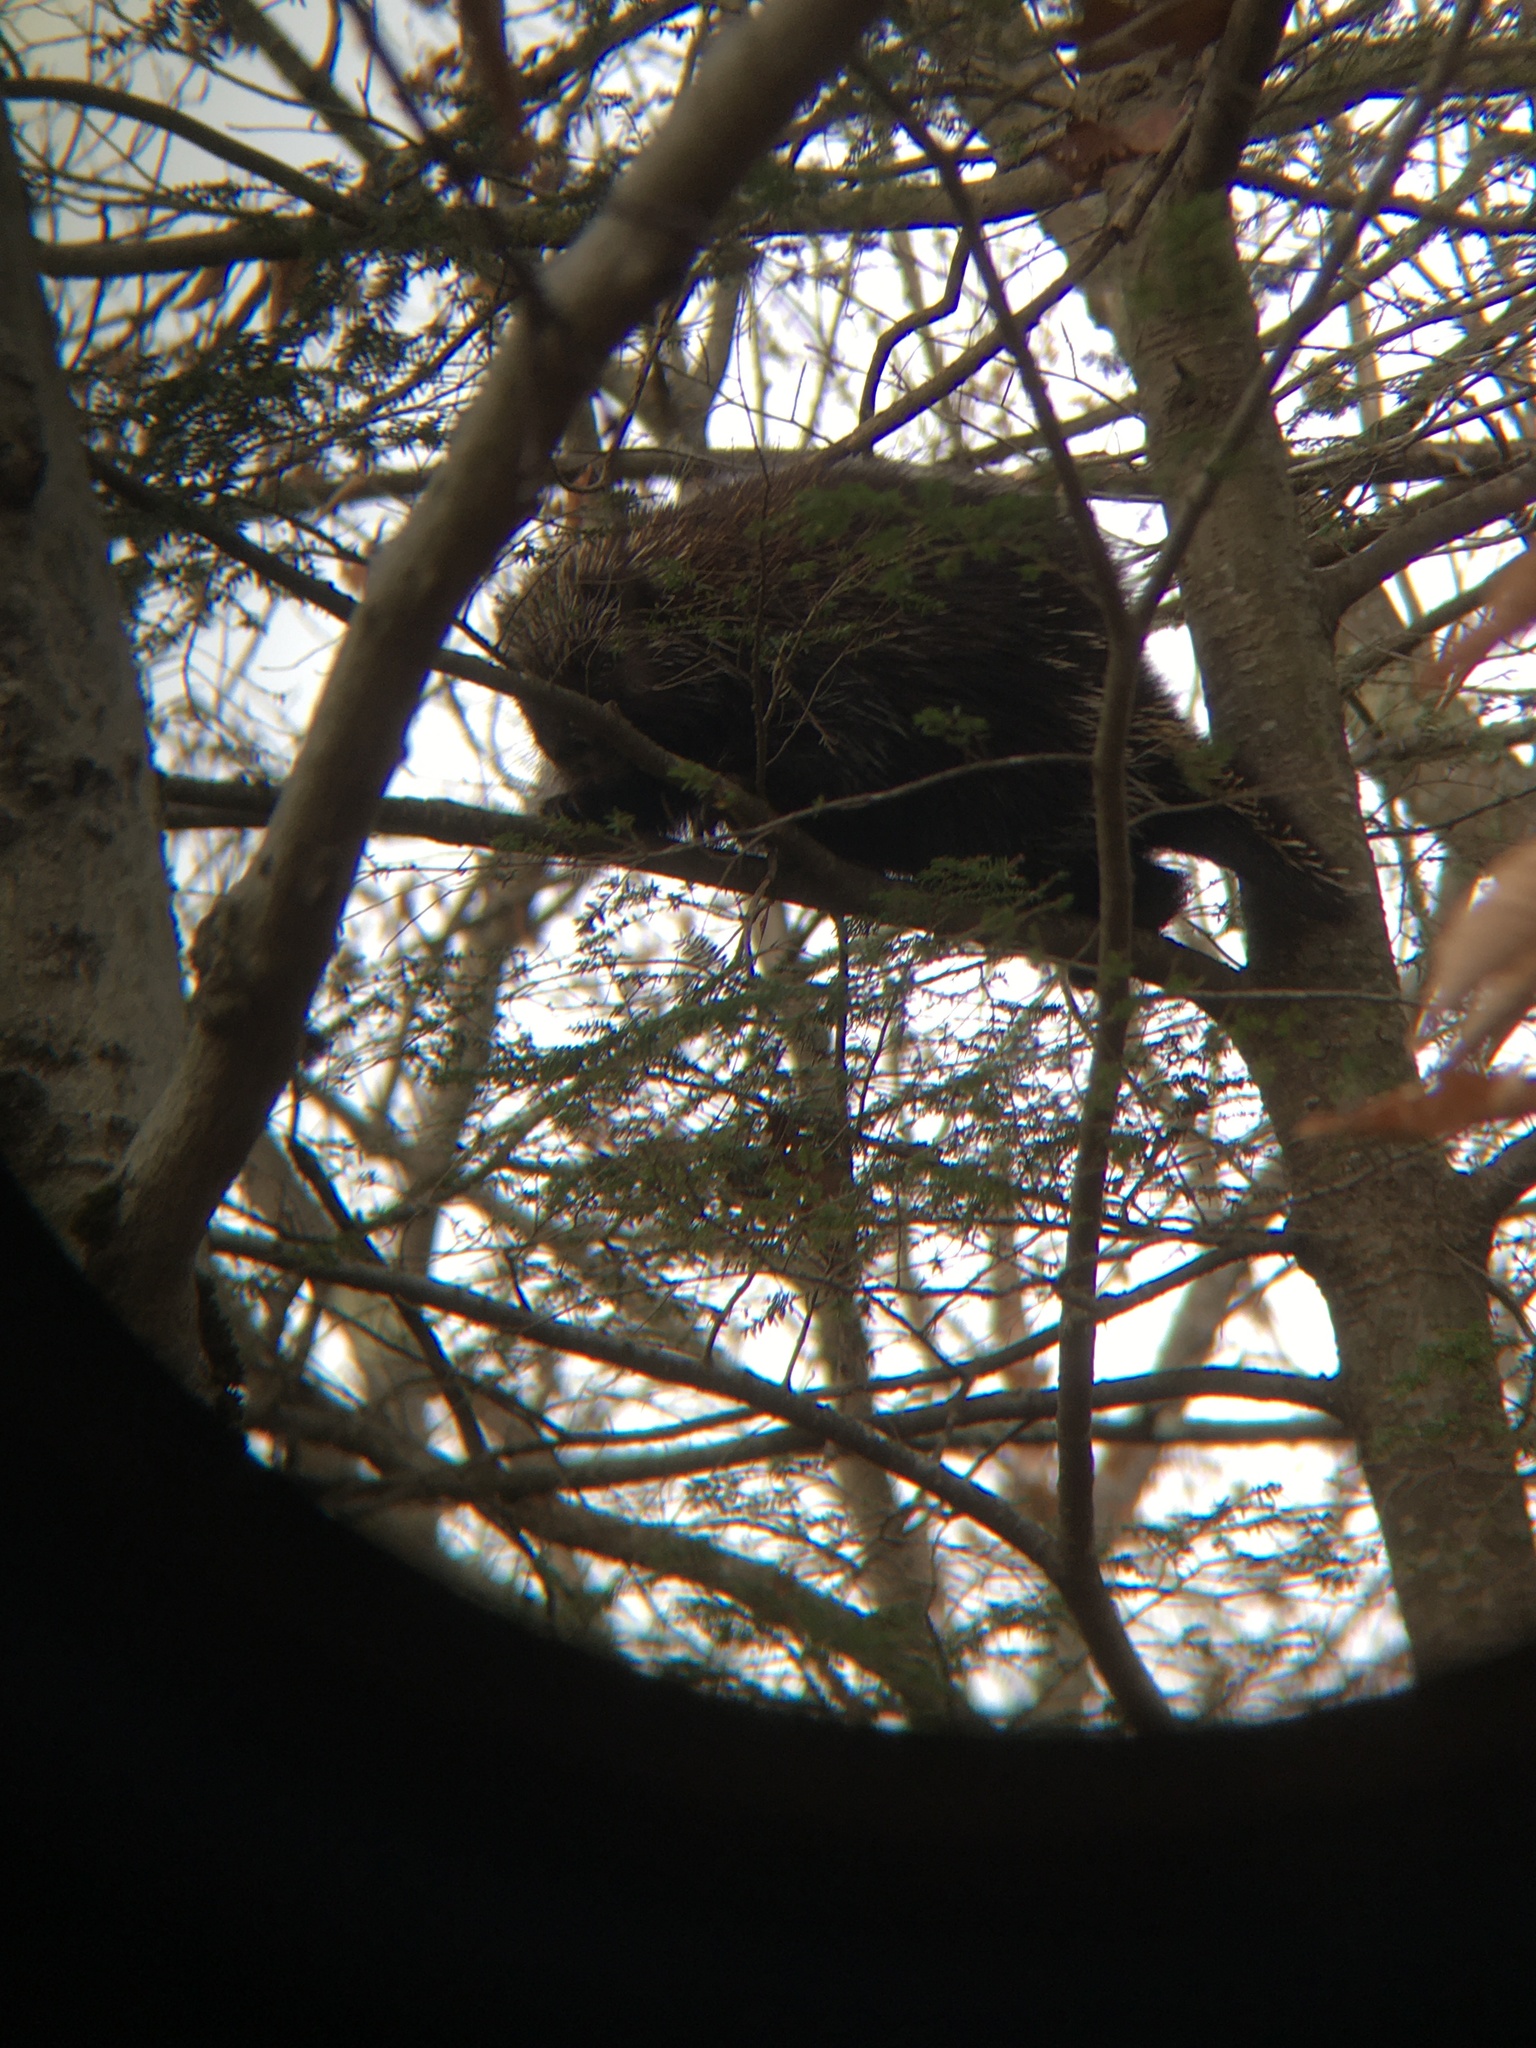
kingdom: Animalia
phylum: Chordata
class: Mammalia
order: Rodentia
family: Erethizontidae
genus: Erethizon
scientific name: Erethizon dorsatus
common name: North american porcupine
